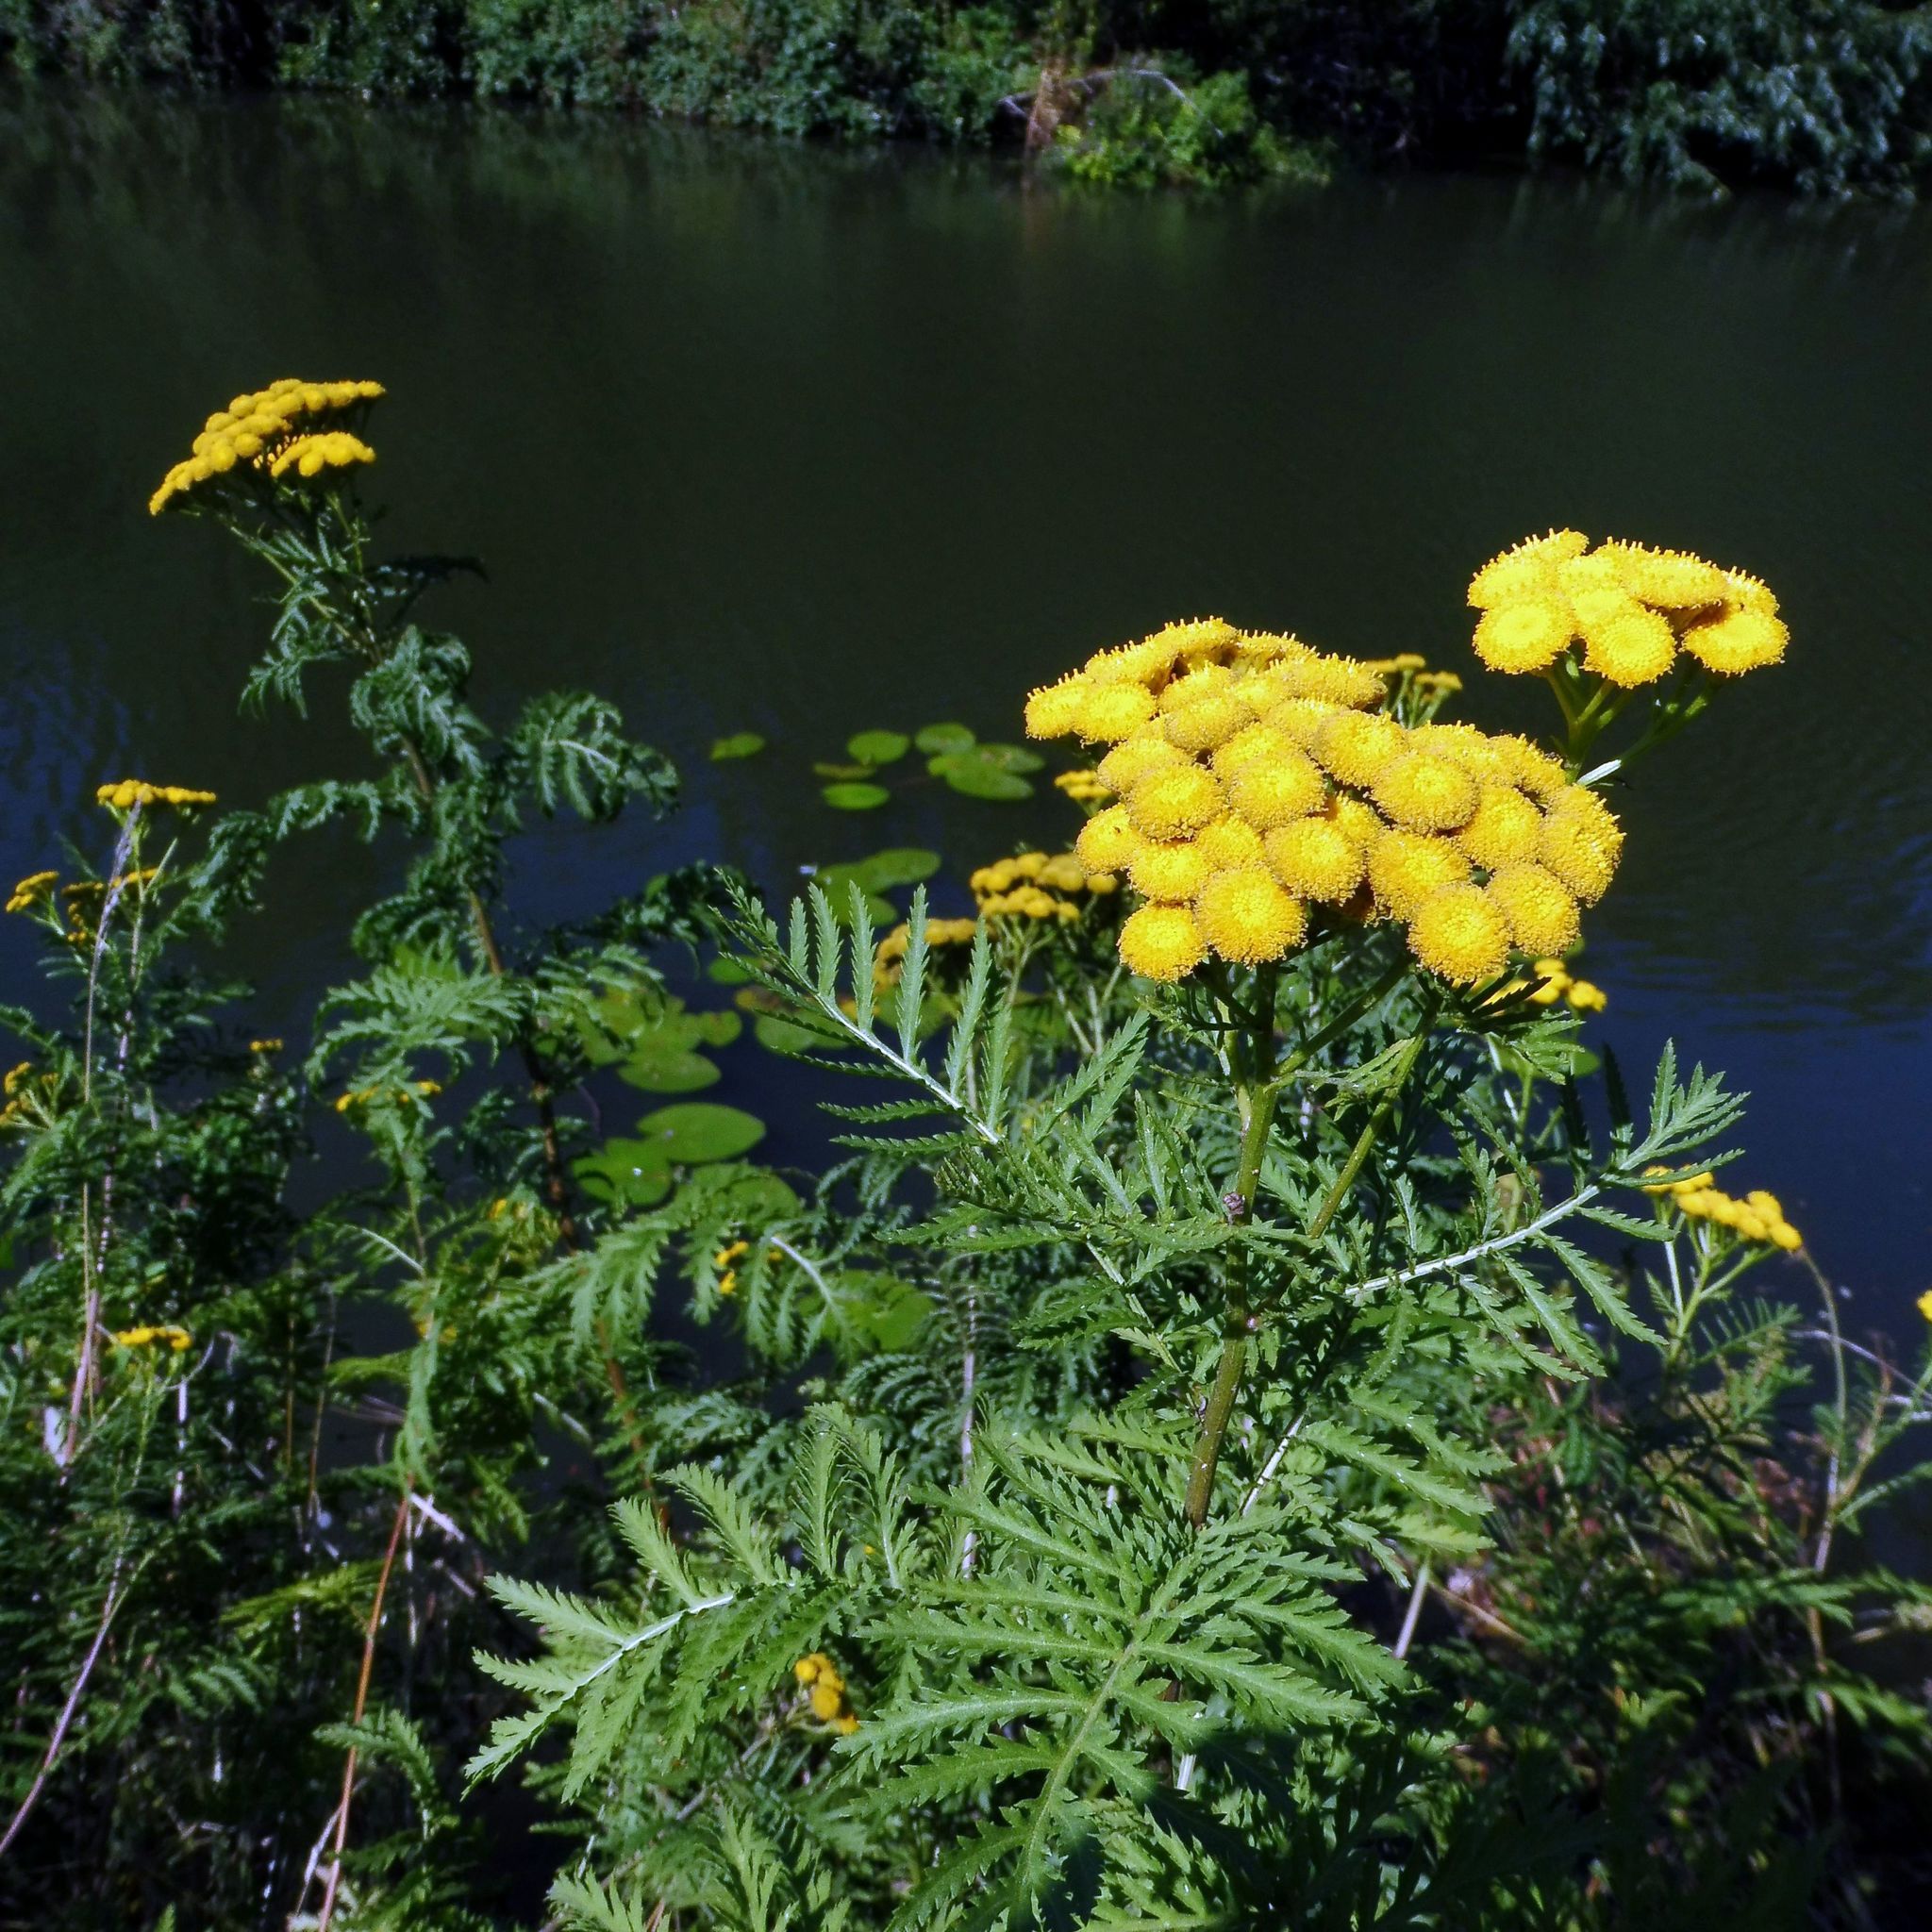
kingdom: Plantae
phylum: Tracheophyta
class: Magnoliopsida
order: Asterales
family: Asteraceae
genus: Tanacetum
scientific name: Tanacetum vulgare
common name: Common tansy
